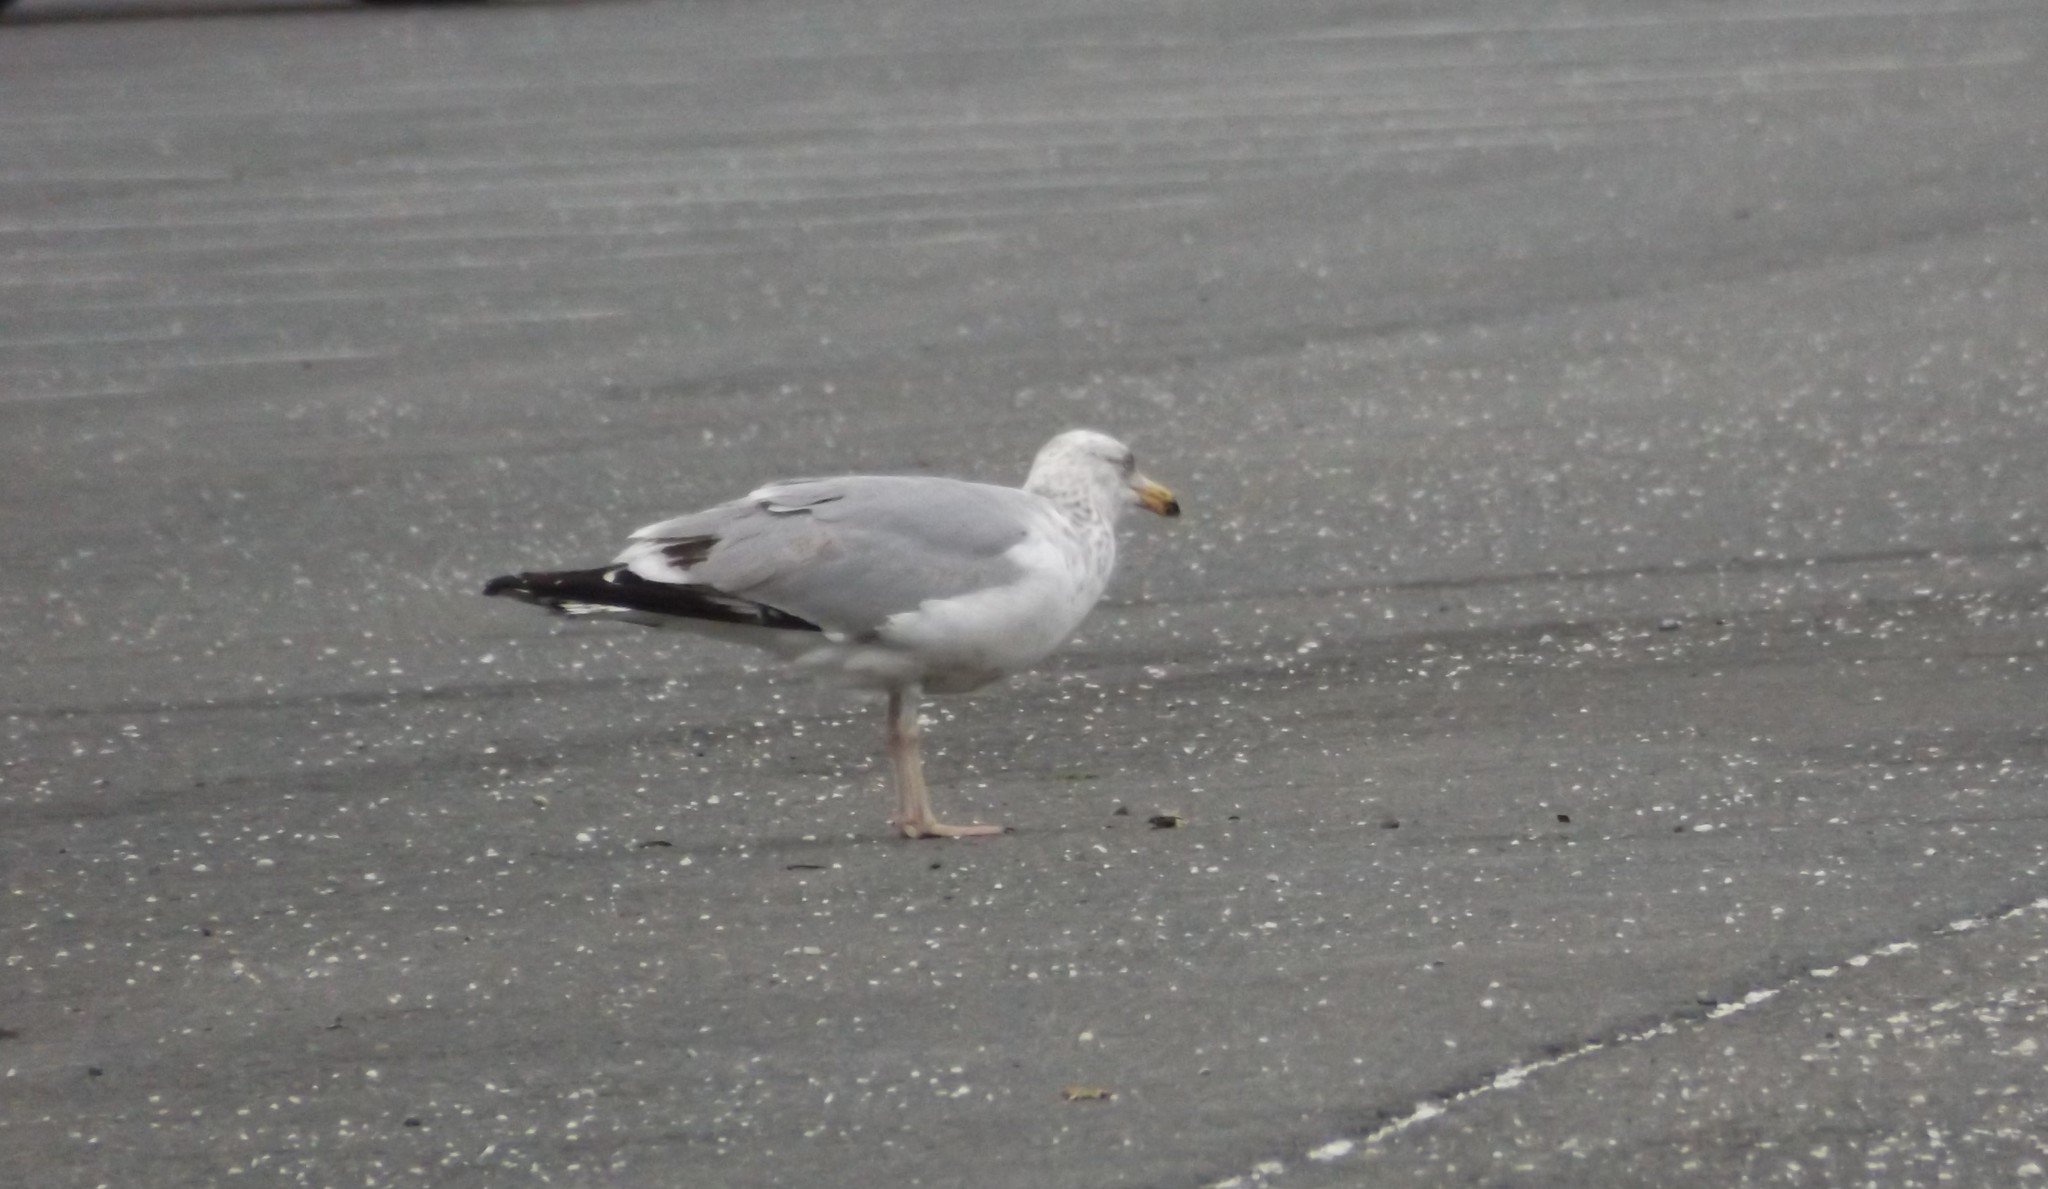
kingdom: Animalia
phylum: Chordata
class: Aves
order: Charadriiformes
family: Laridae
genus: Larus
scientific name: Larus delawarensis
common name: Ring-billed gull
